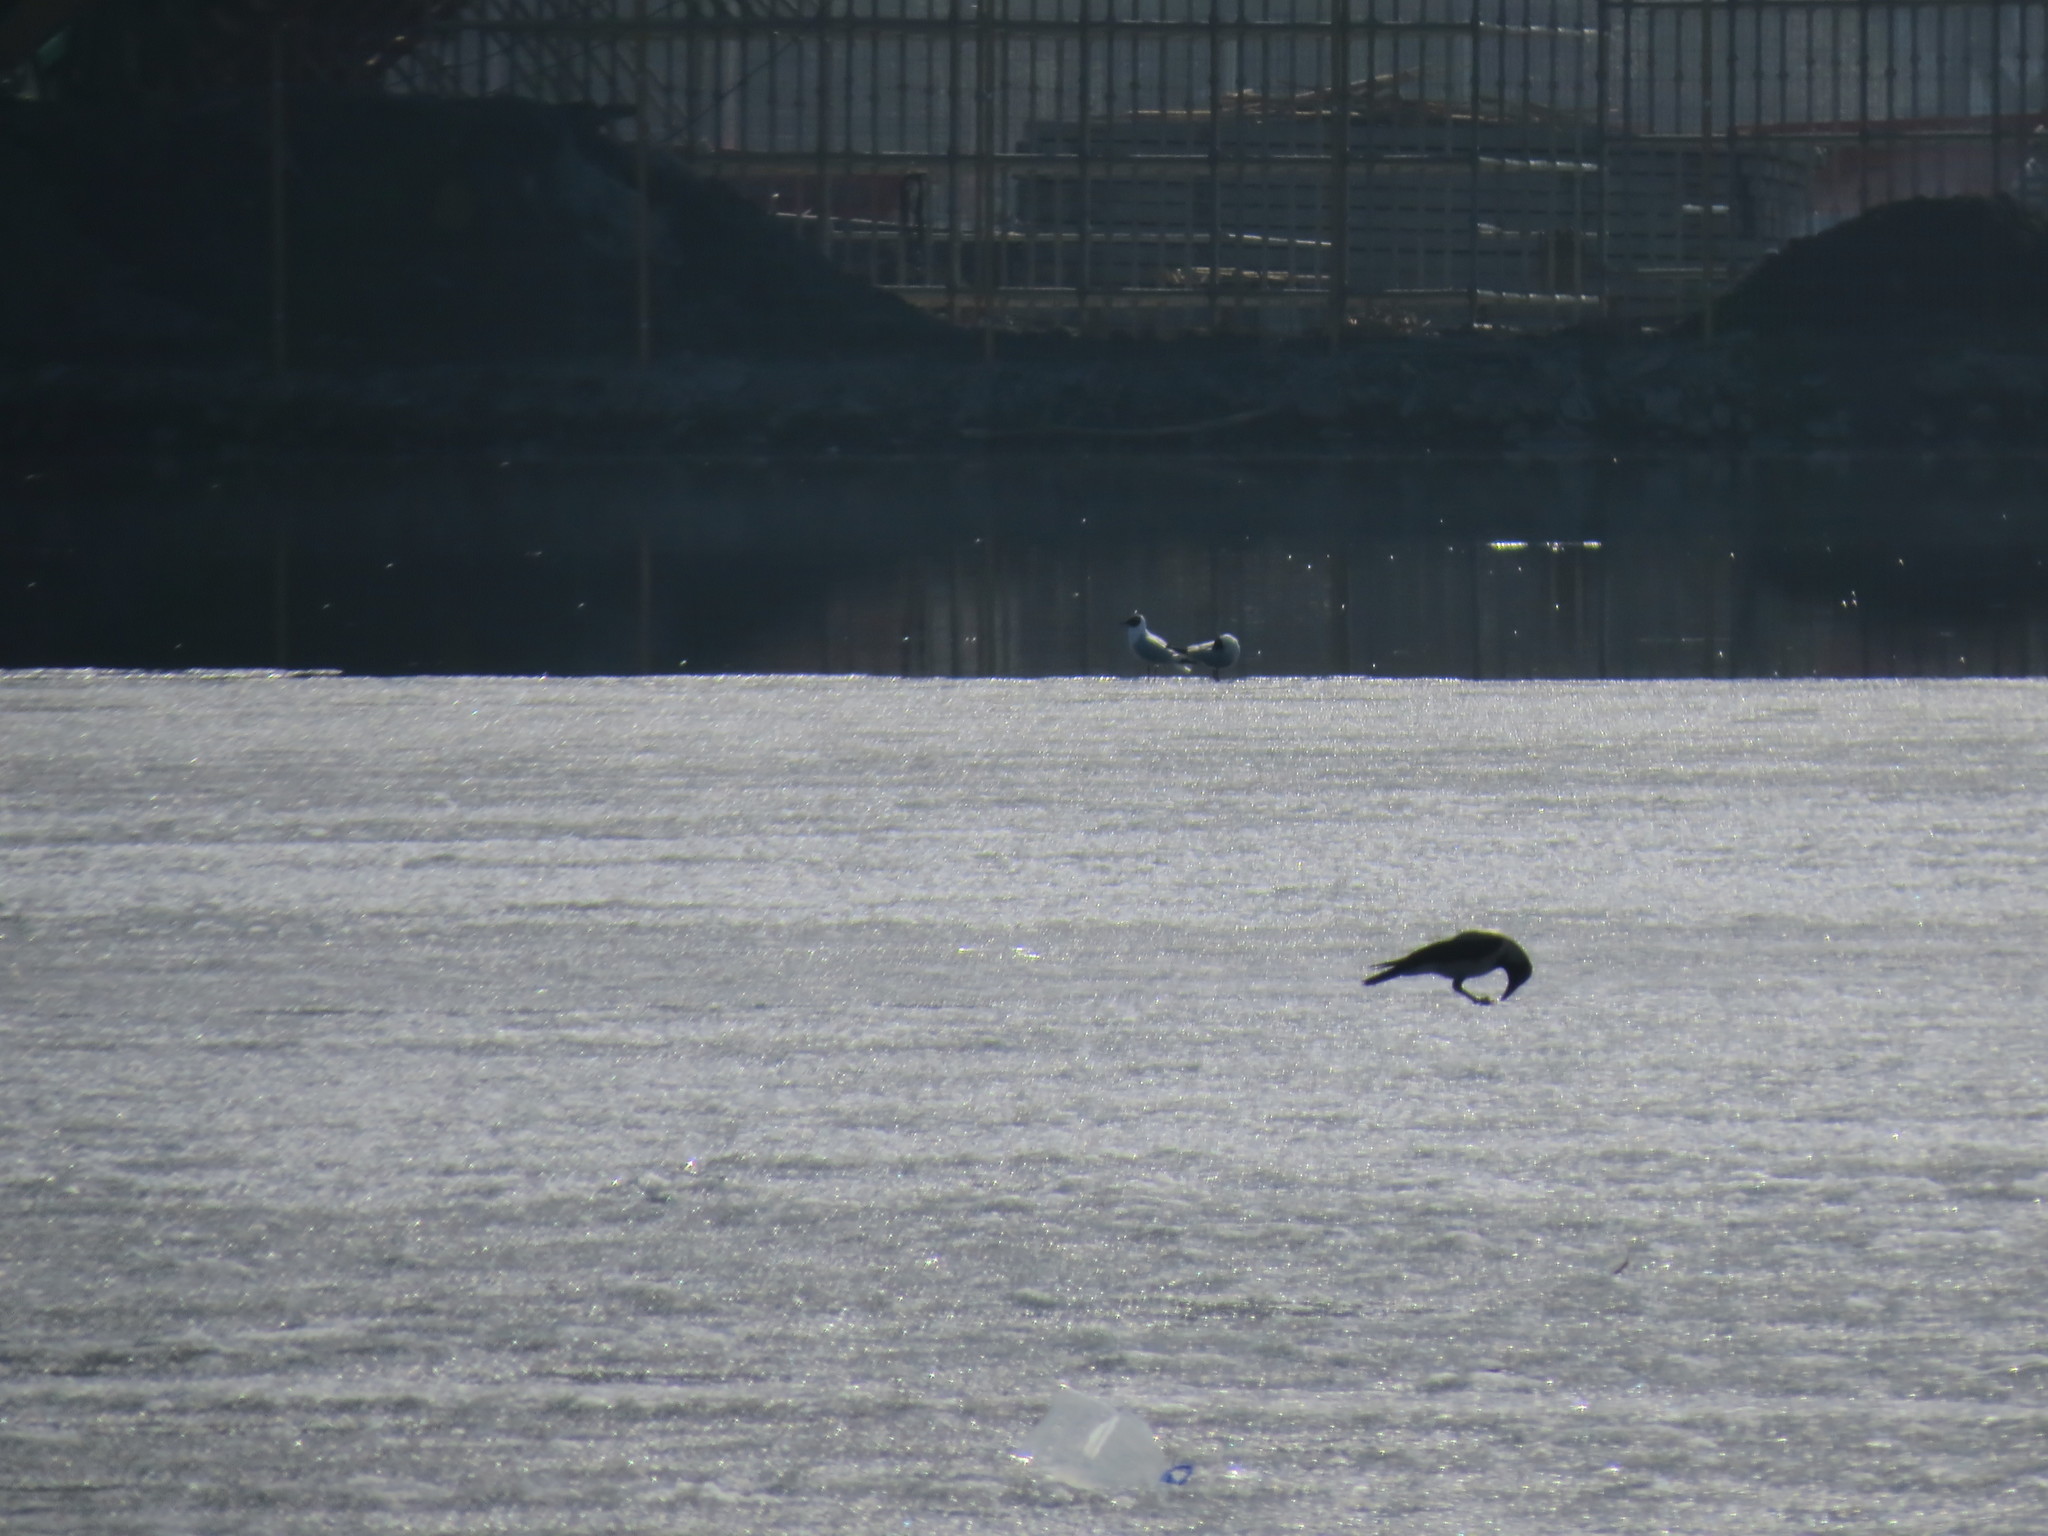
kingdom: Animalia
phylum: Chordata
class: Aves
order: Passeriformes
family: Corvidae
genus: Corvus
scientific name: Corvus cornix
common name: Hooded crow
